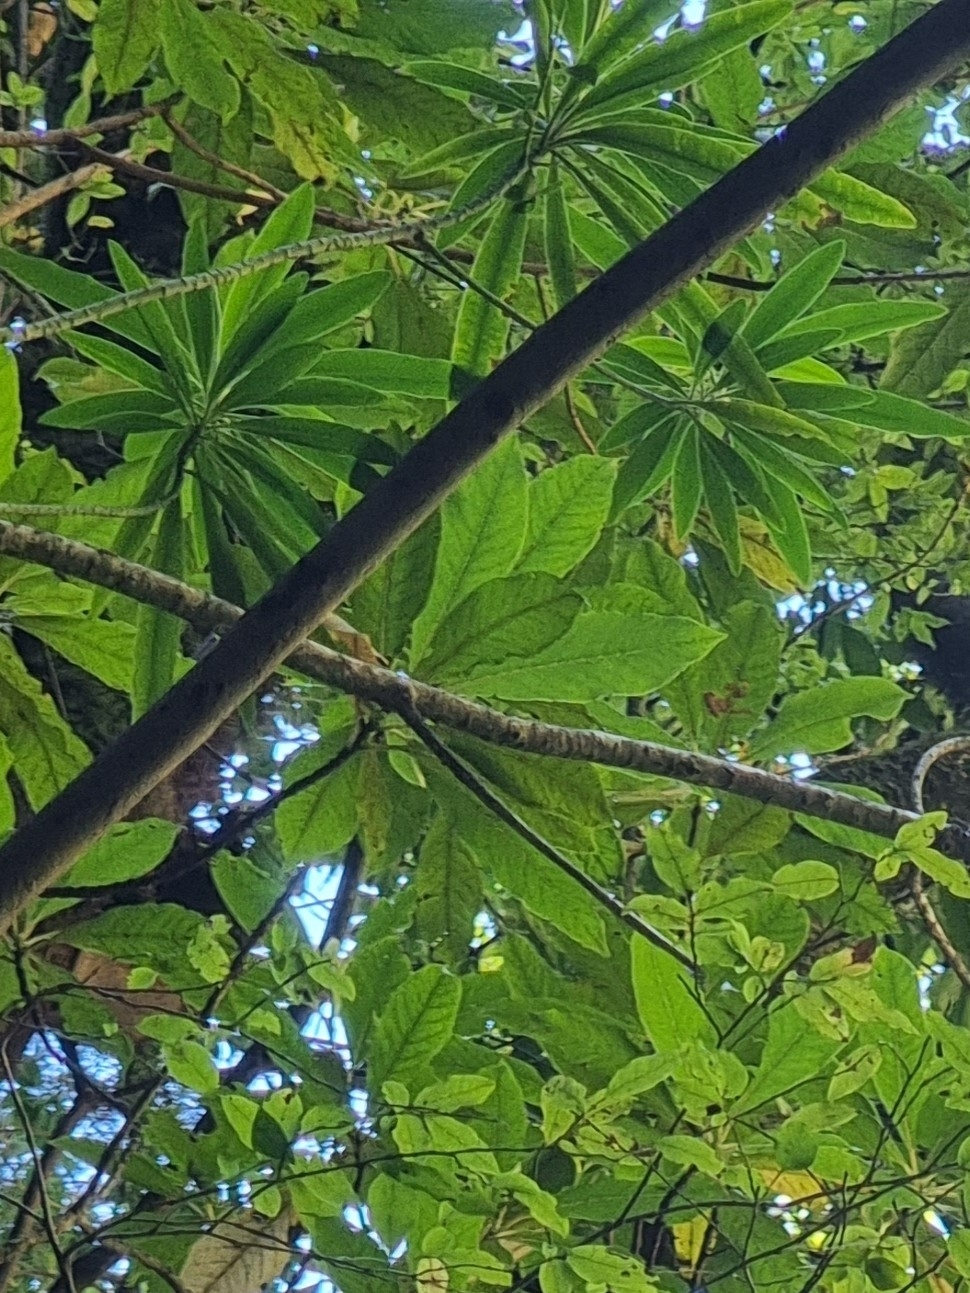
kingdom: Plantae
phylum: Tracheophyta
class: Magnoliopsida
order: Malpighiales
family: Euphorbiaceae
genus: Euphorbia
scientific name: Euphorbia mellifera
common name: Canary spurge
